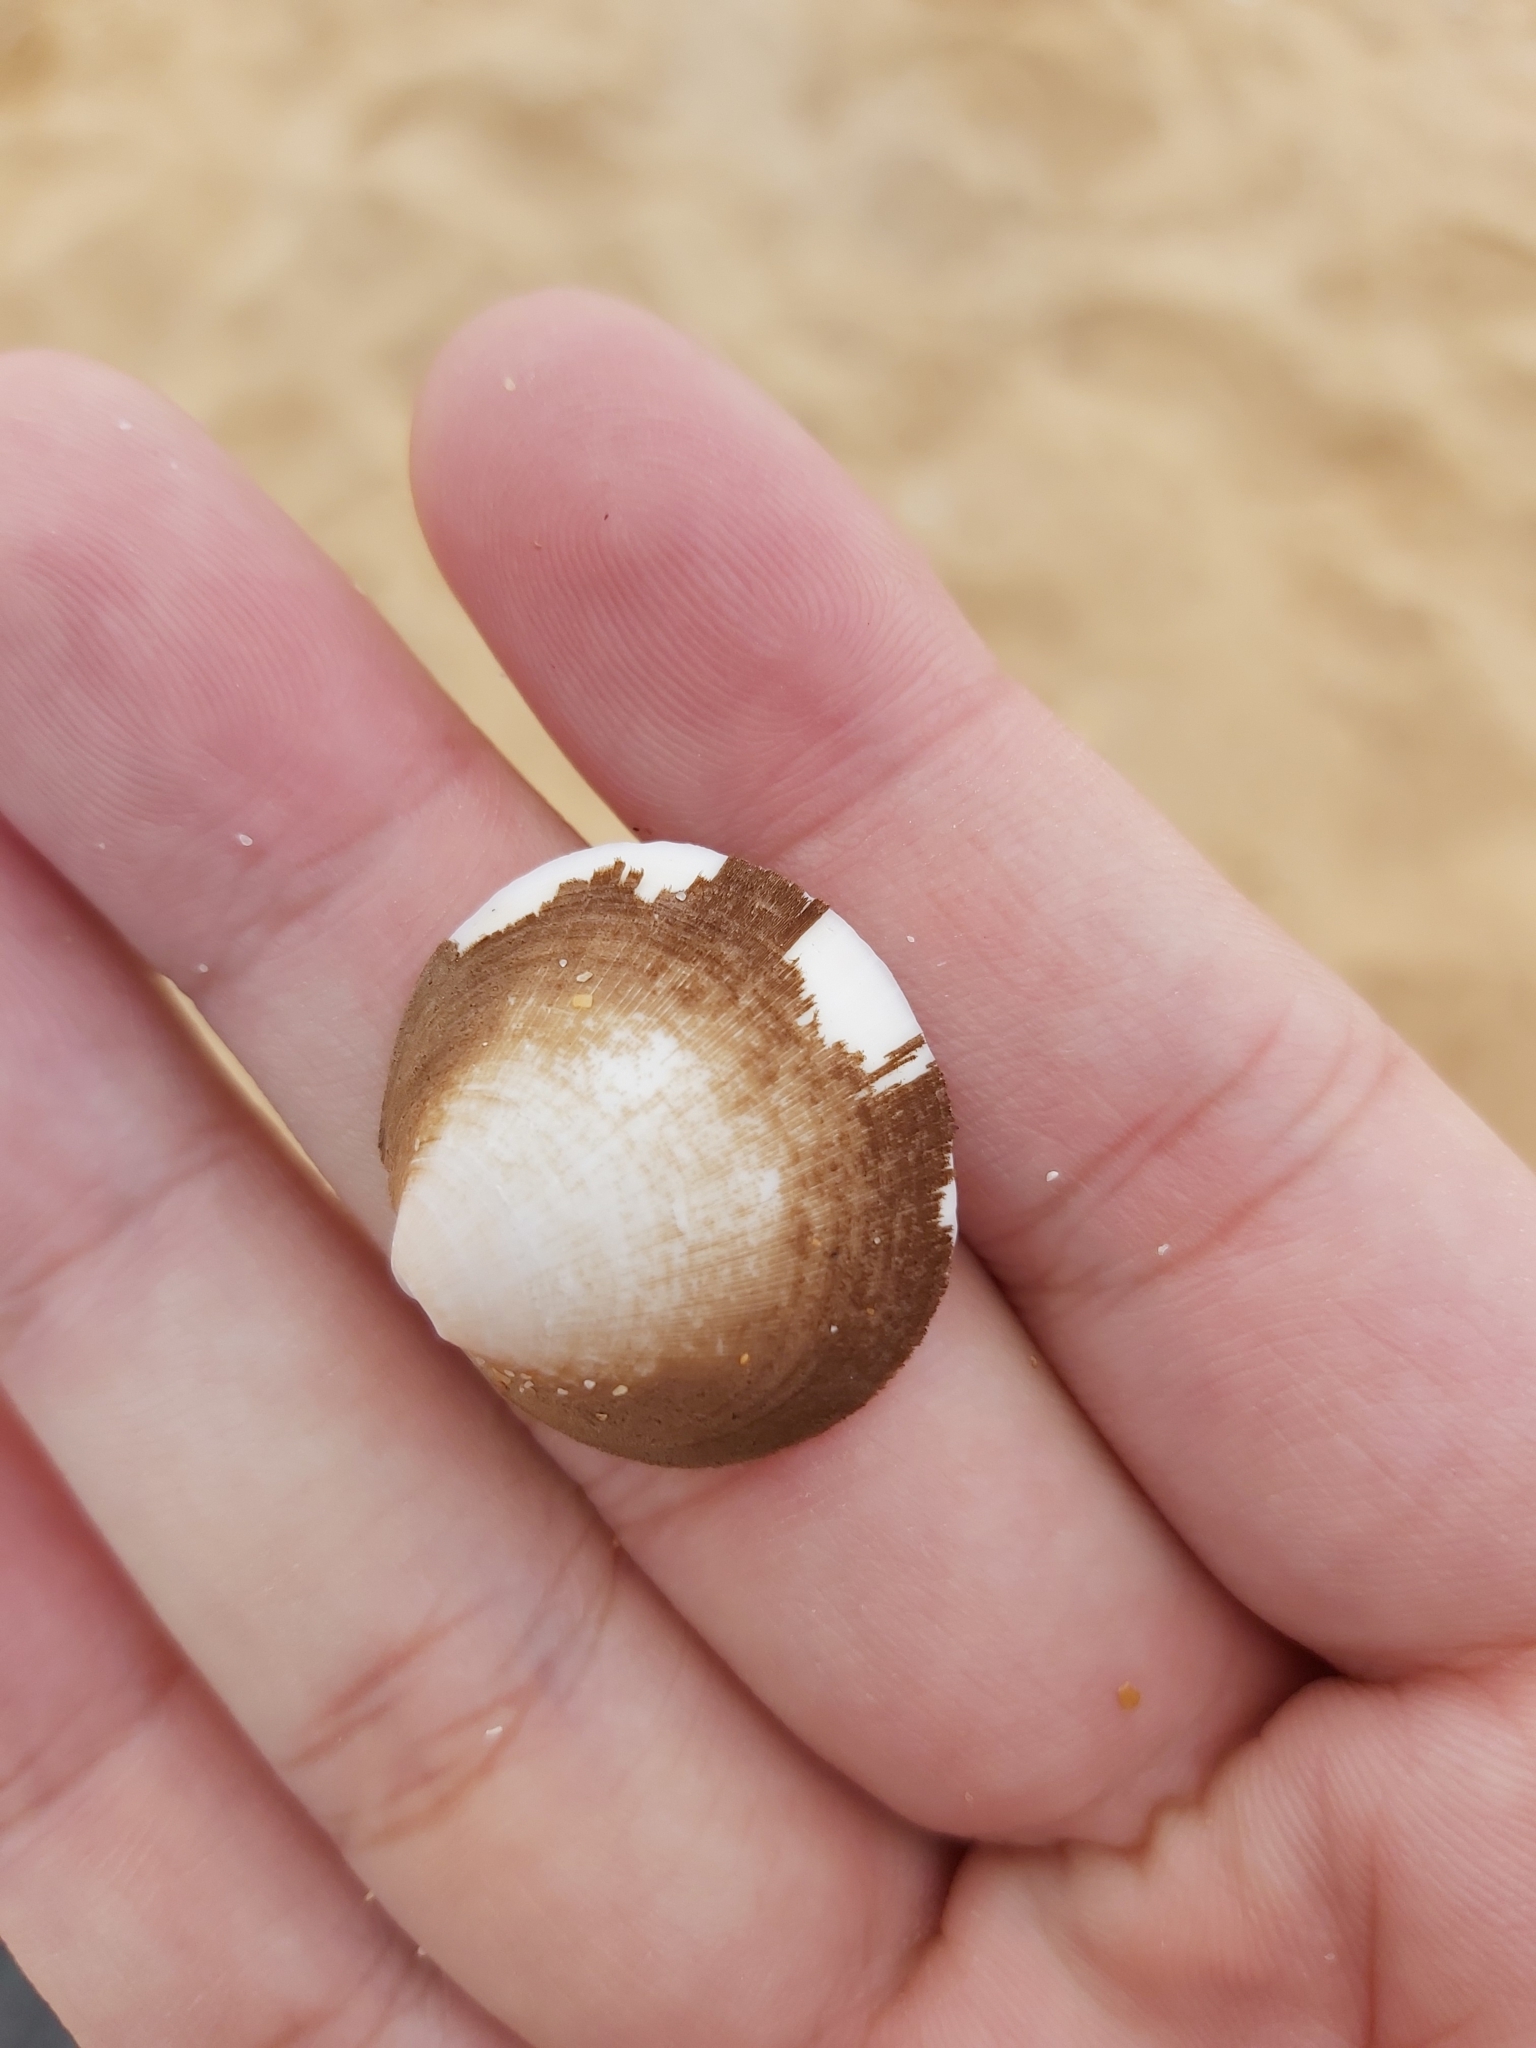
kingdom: Animalia
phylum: Mollusca
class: Bivalvia
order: Arcida
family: Glycymerididae
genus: Glycymeris
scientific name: Glycymeris holoserica
